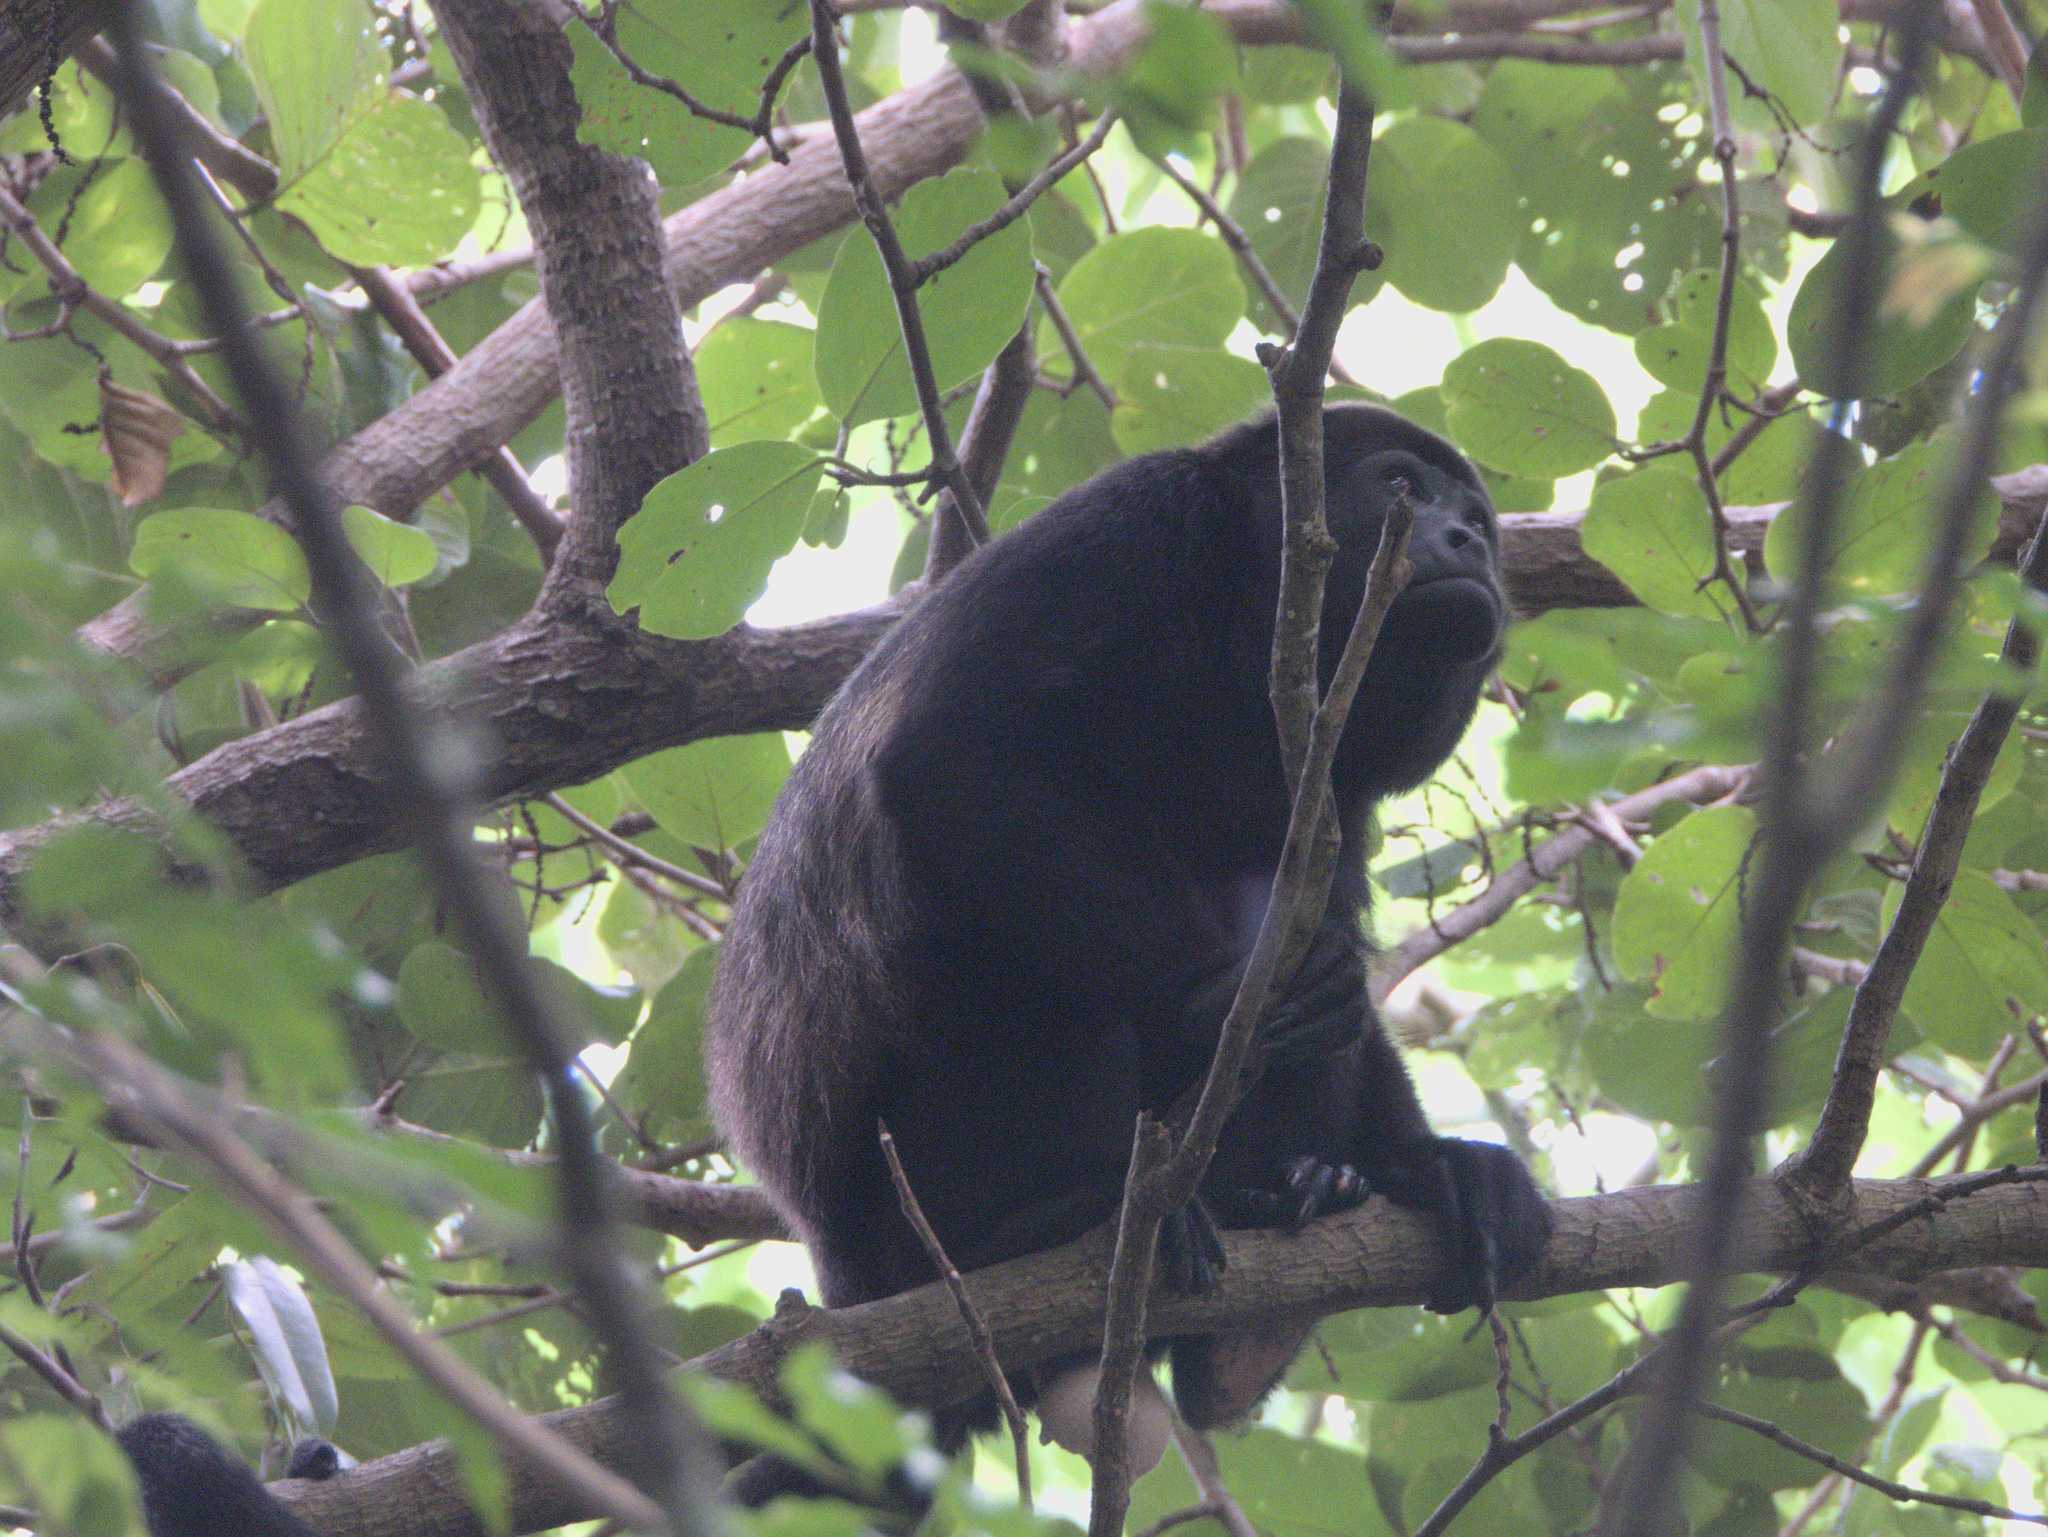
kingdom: Animalia
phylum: Chordata
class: Mammalia
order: Primates
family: Atelidae
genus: Alouatta
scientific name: Alouatta palliata
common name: Mantled howler
